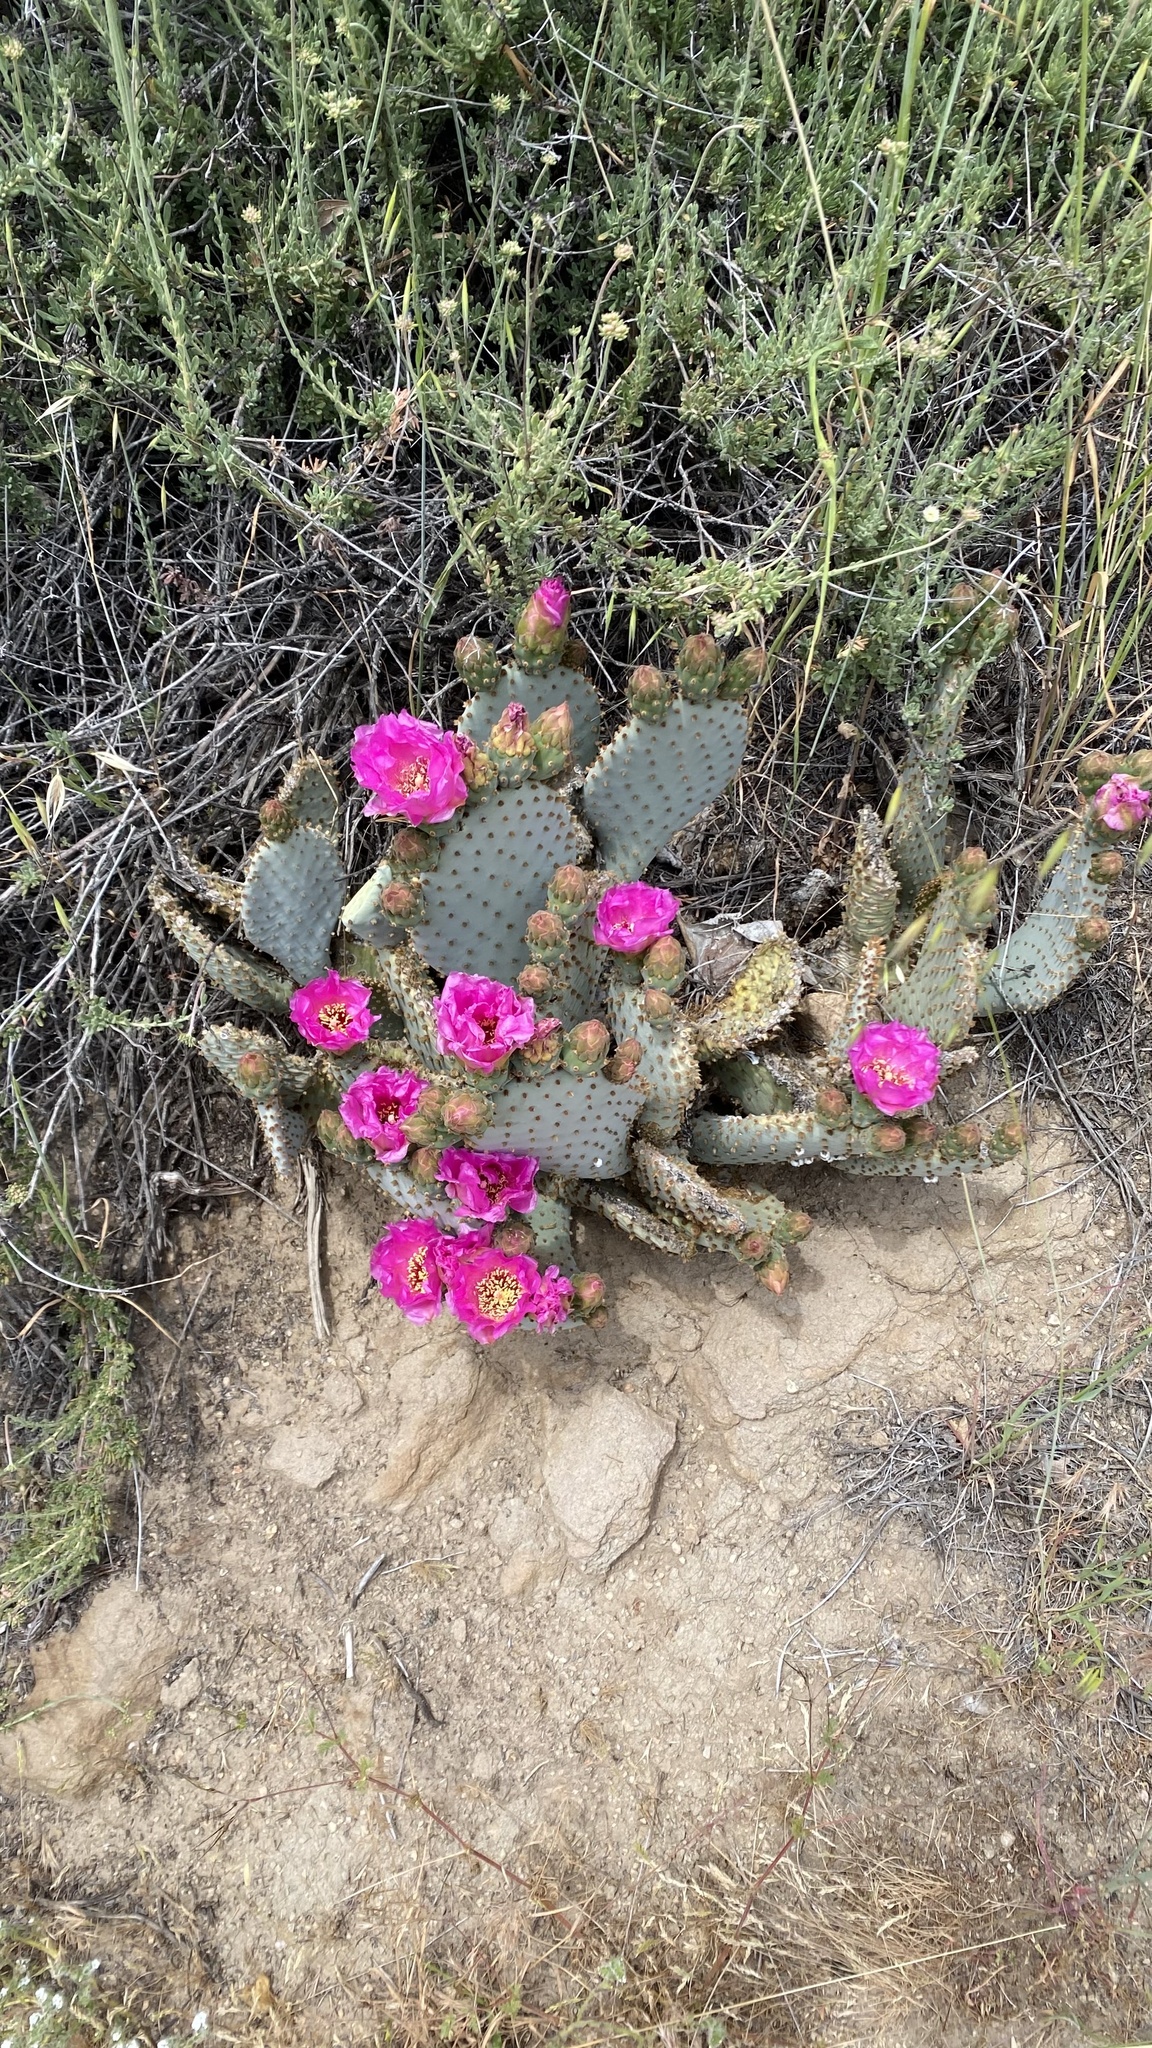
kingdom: Plantae
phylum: Tracheophyta
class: Magnoliopsida
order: Caryophyllales
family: Cactaceae
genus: Opuntia
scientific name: Opuntia basilaris
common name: Beavertail prickly-pear
